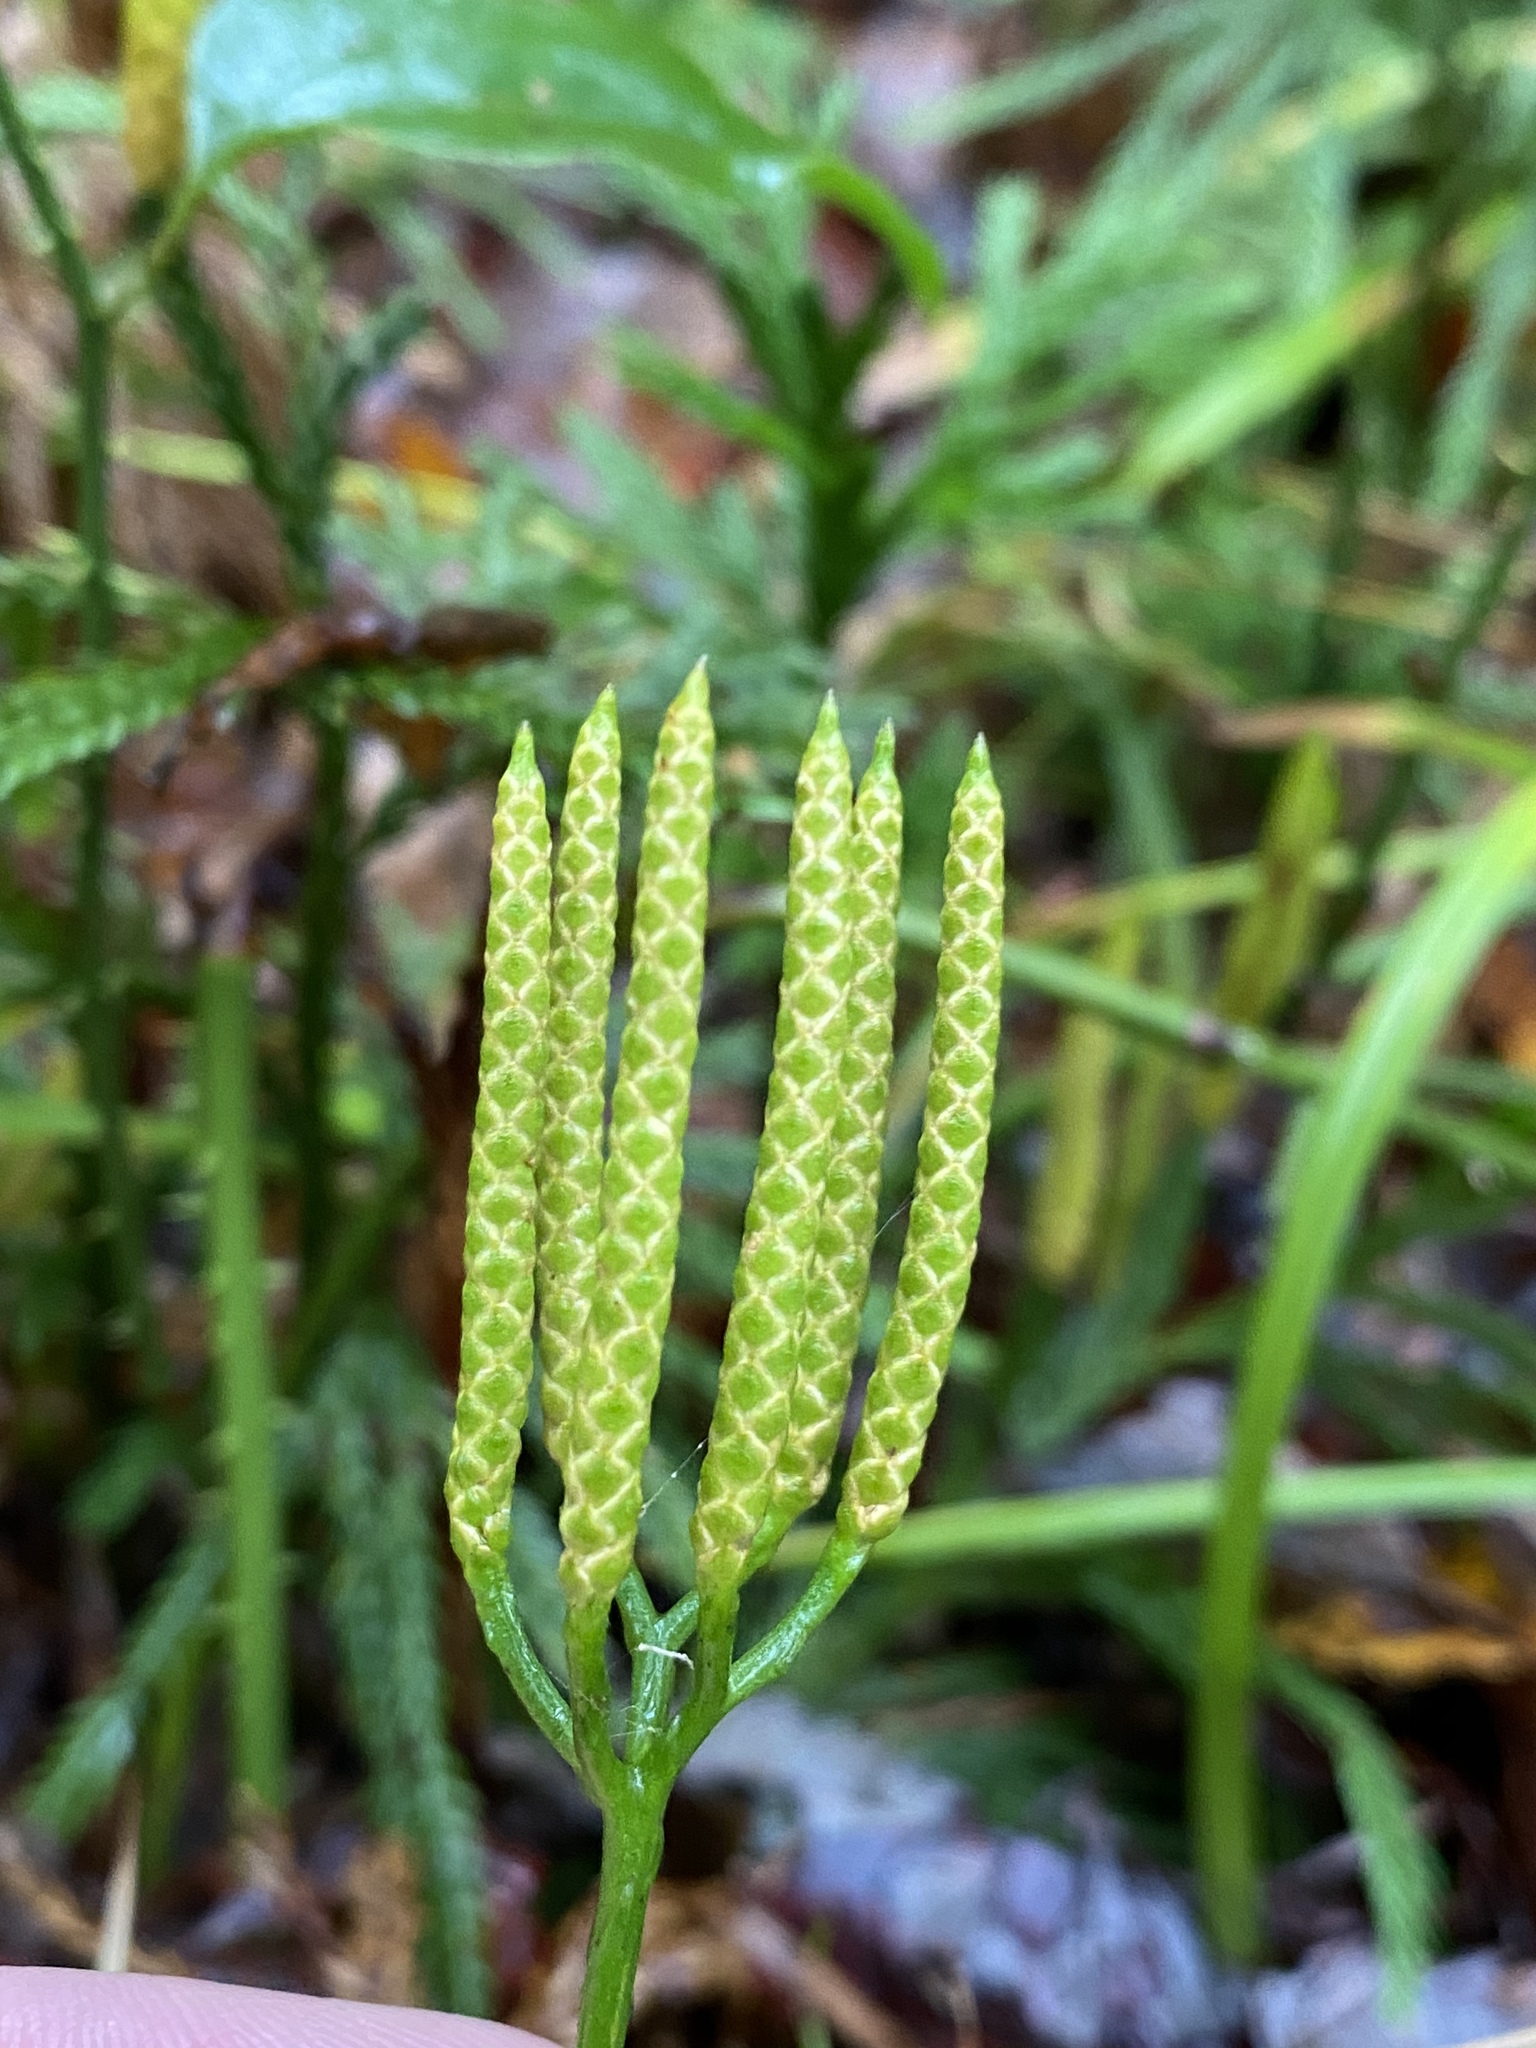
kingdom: Plantae
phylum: Tracheophyta
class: Lycopodiopsida
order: Lycopodiales
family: Lycopodiaceae
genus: Diphasiastrum
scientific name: Diphasiastrum digitatum
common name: Southern running-pine
